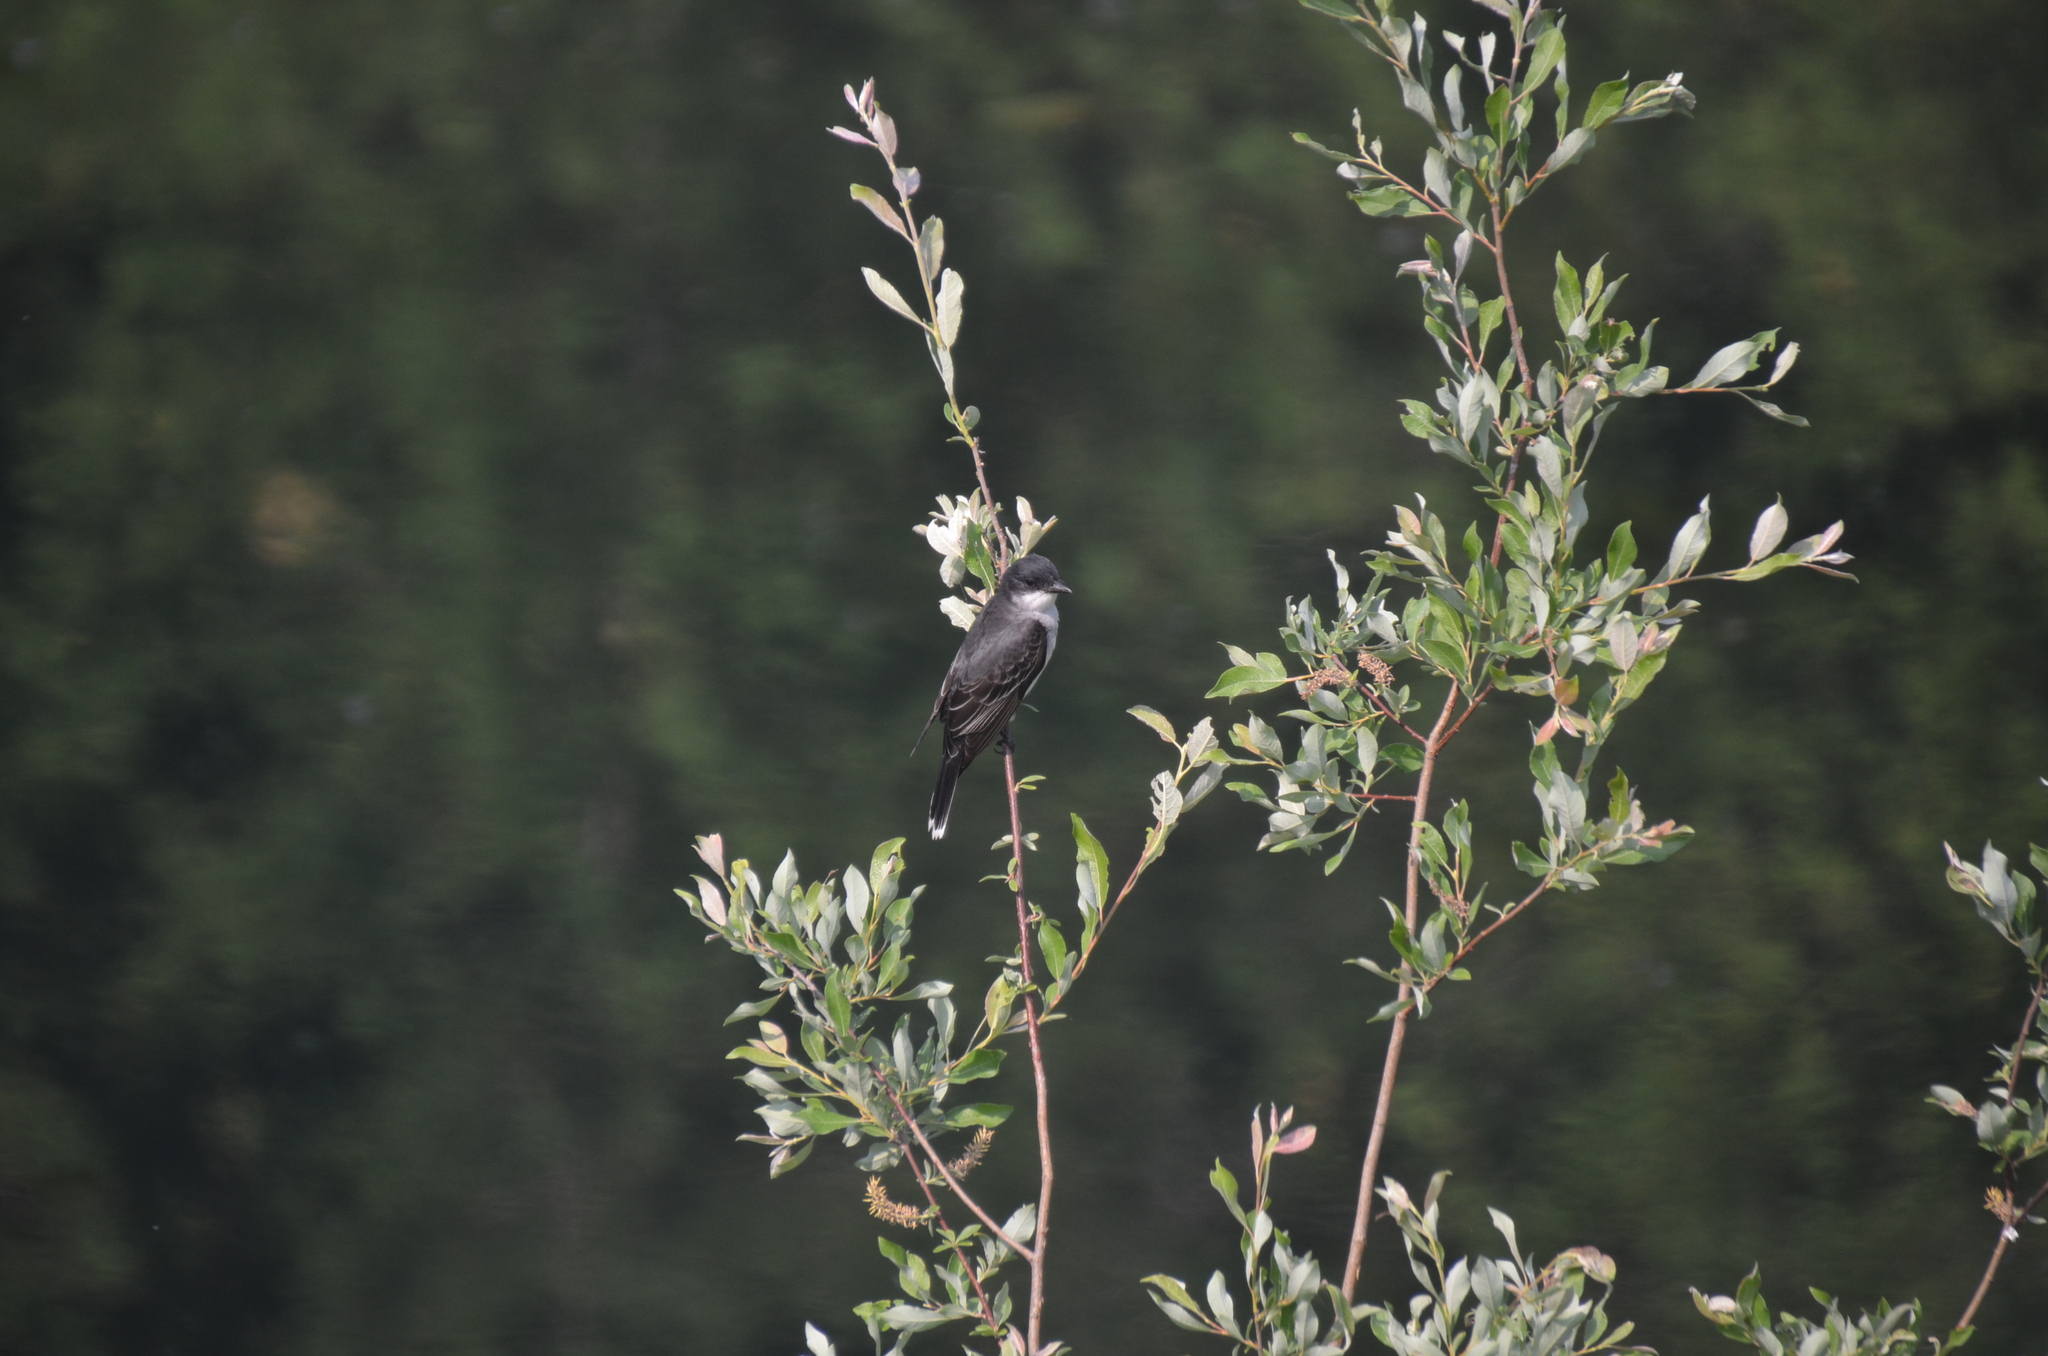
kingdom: Animalia
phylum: Chordata
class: Aves
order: Passeriformes
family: Tyrannidae
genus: Tyrannus
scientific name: Tyrannus tyrannus
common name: Eastern kingbird
